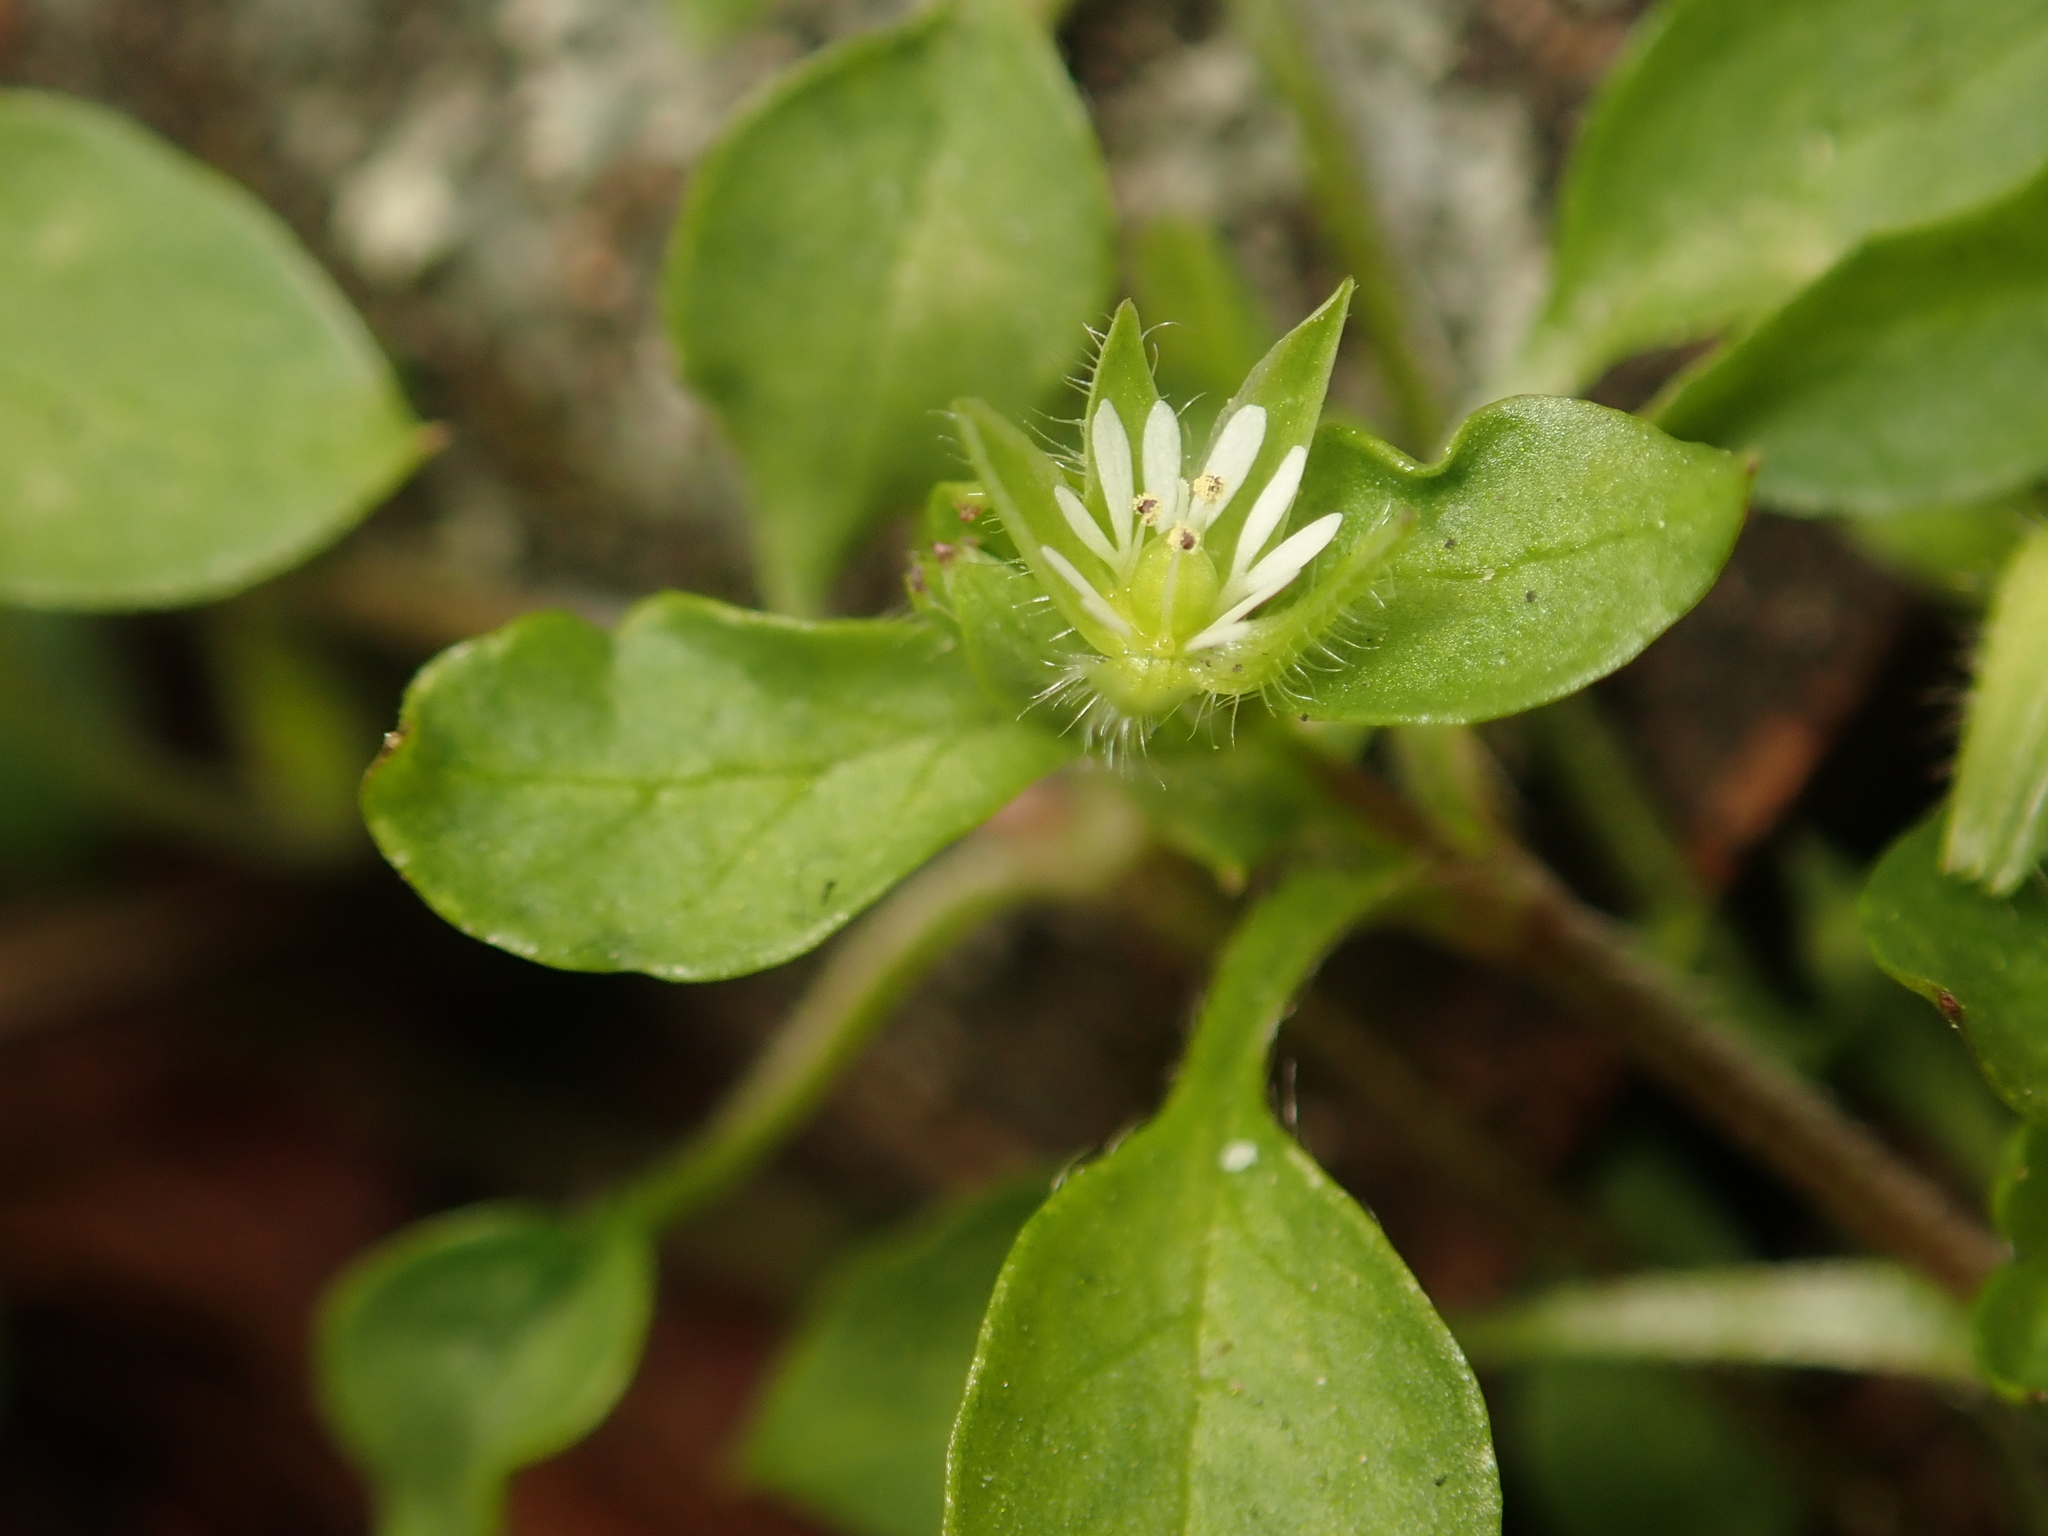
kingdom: Plantae
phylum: Tracheophyta
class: Magnoliopsida
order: Caryophyllales
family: Caryophyllaceae
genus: Stellaria
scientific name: Stellaria media
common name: Common chickweed
